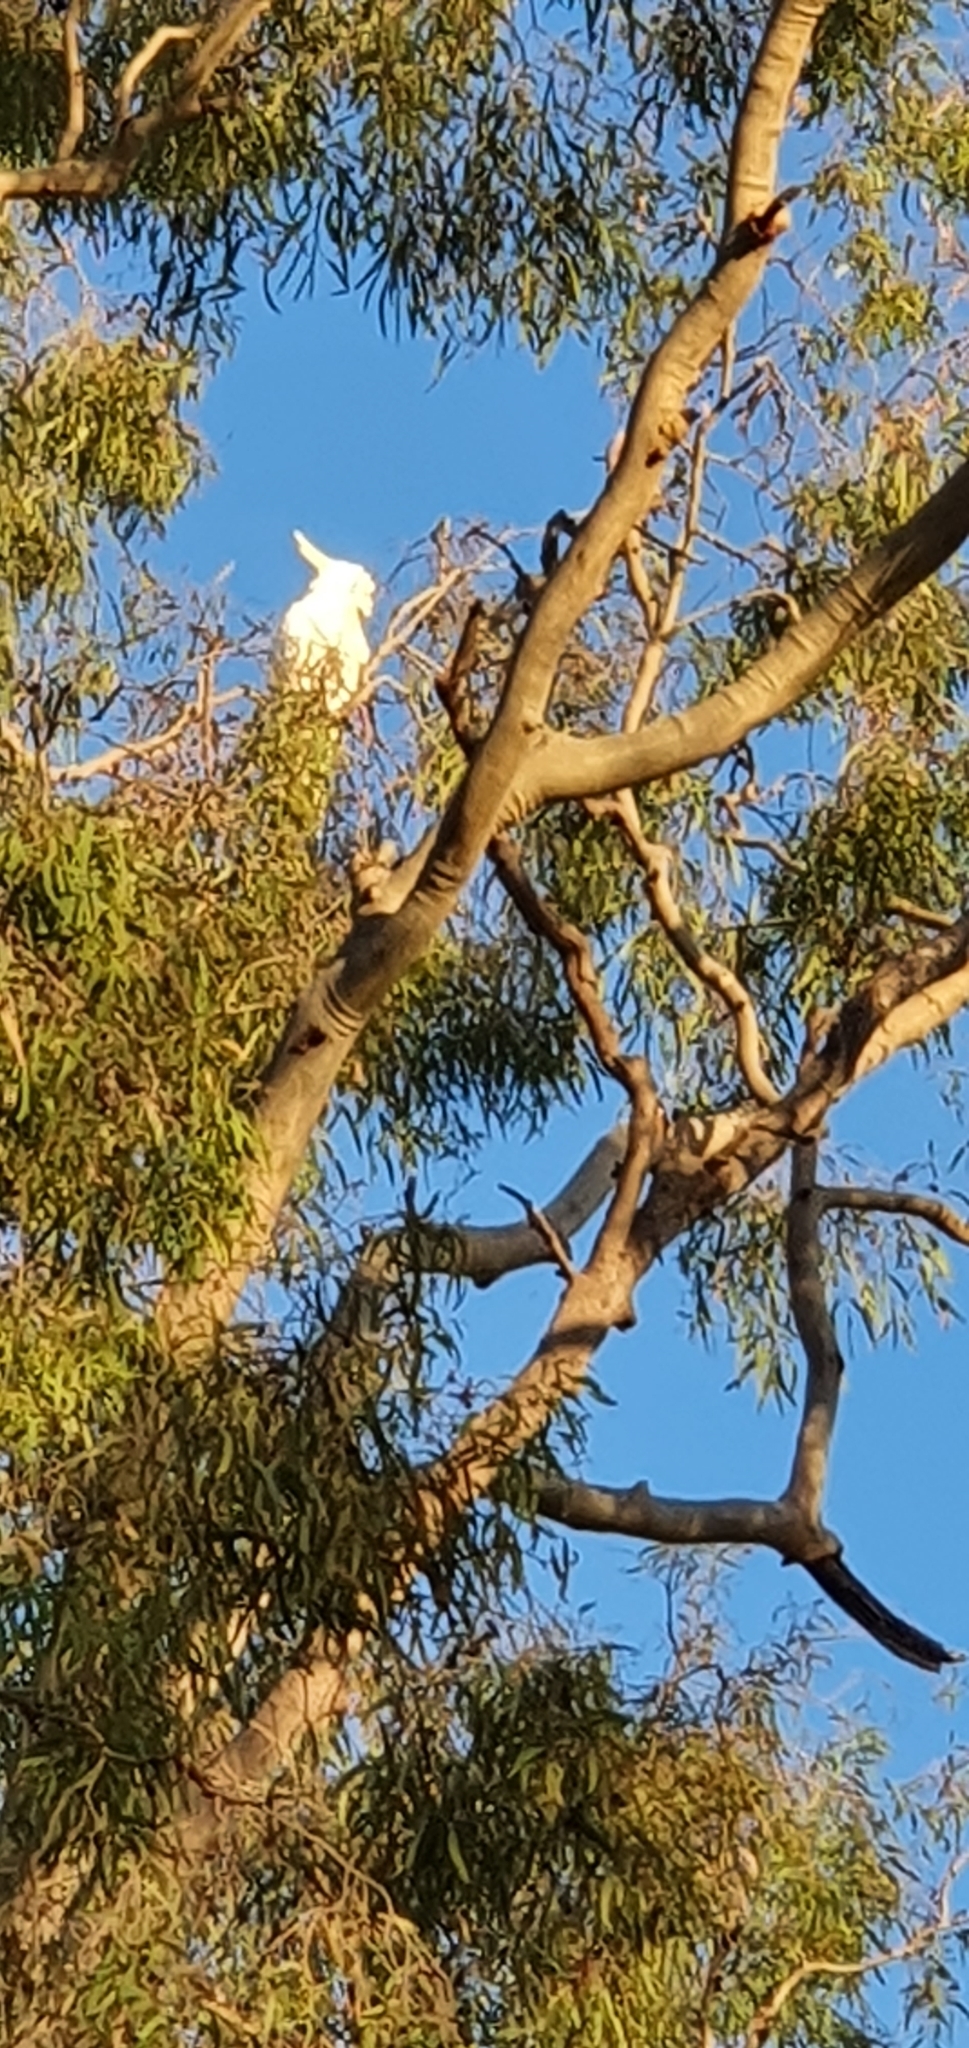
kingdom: Animalia
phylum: Chordata
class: Aves
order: Psittaciformes
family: Psittacidae
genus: Cacatua
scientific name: Cacatua galerita
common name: Sulphur-crested cockatoo
